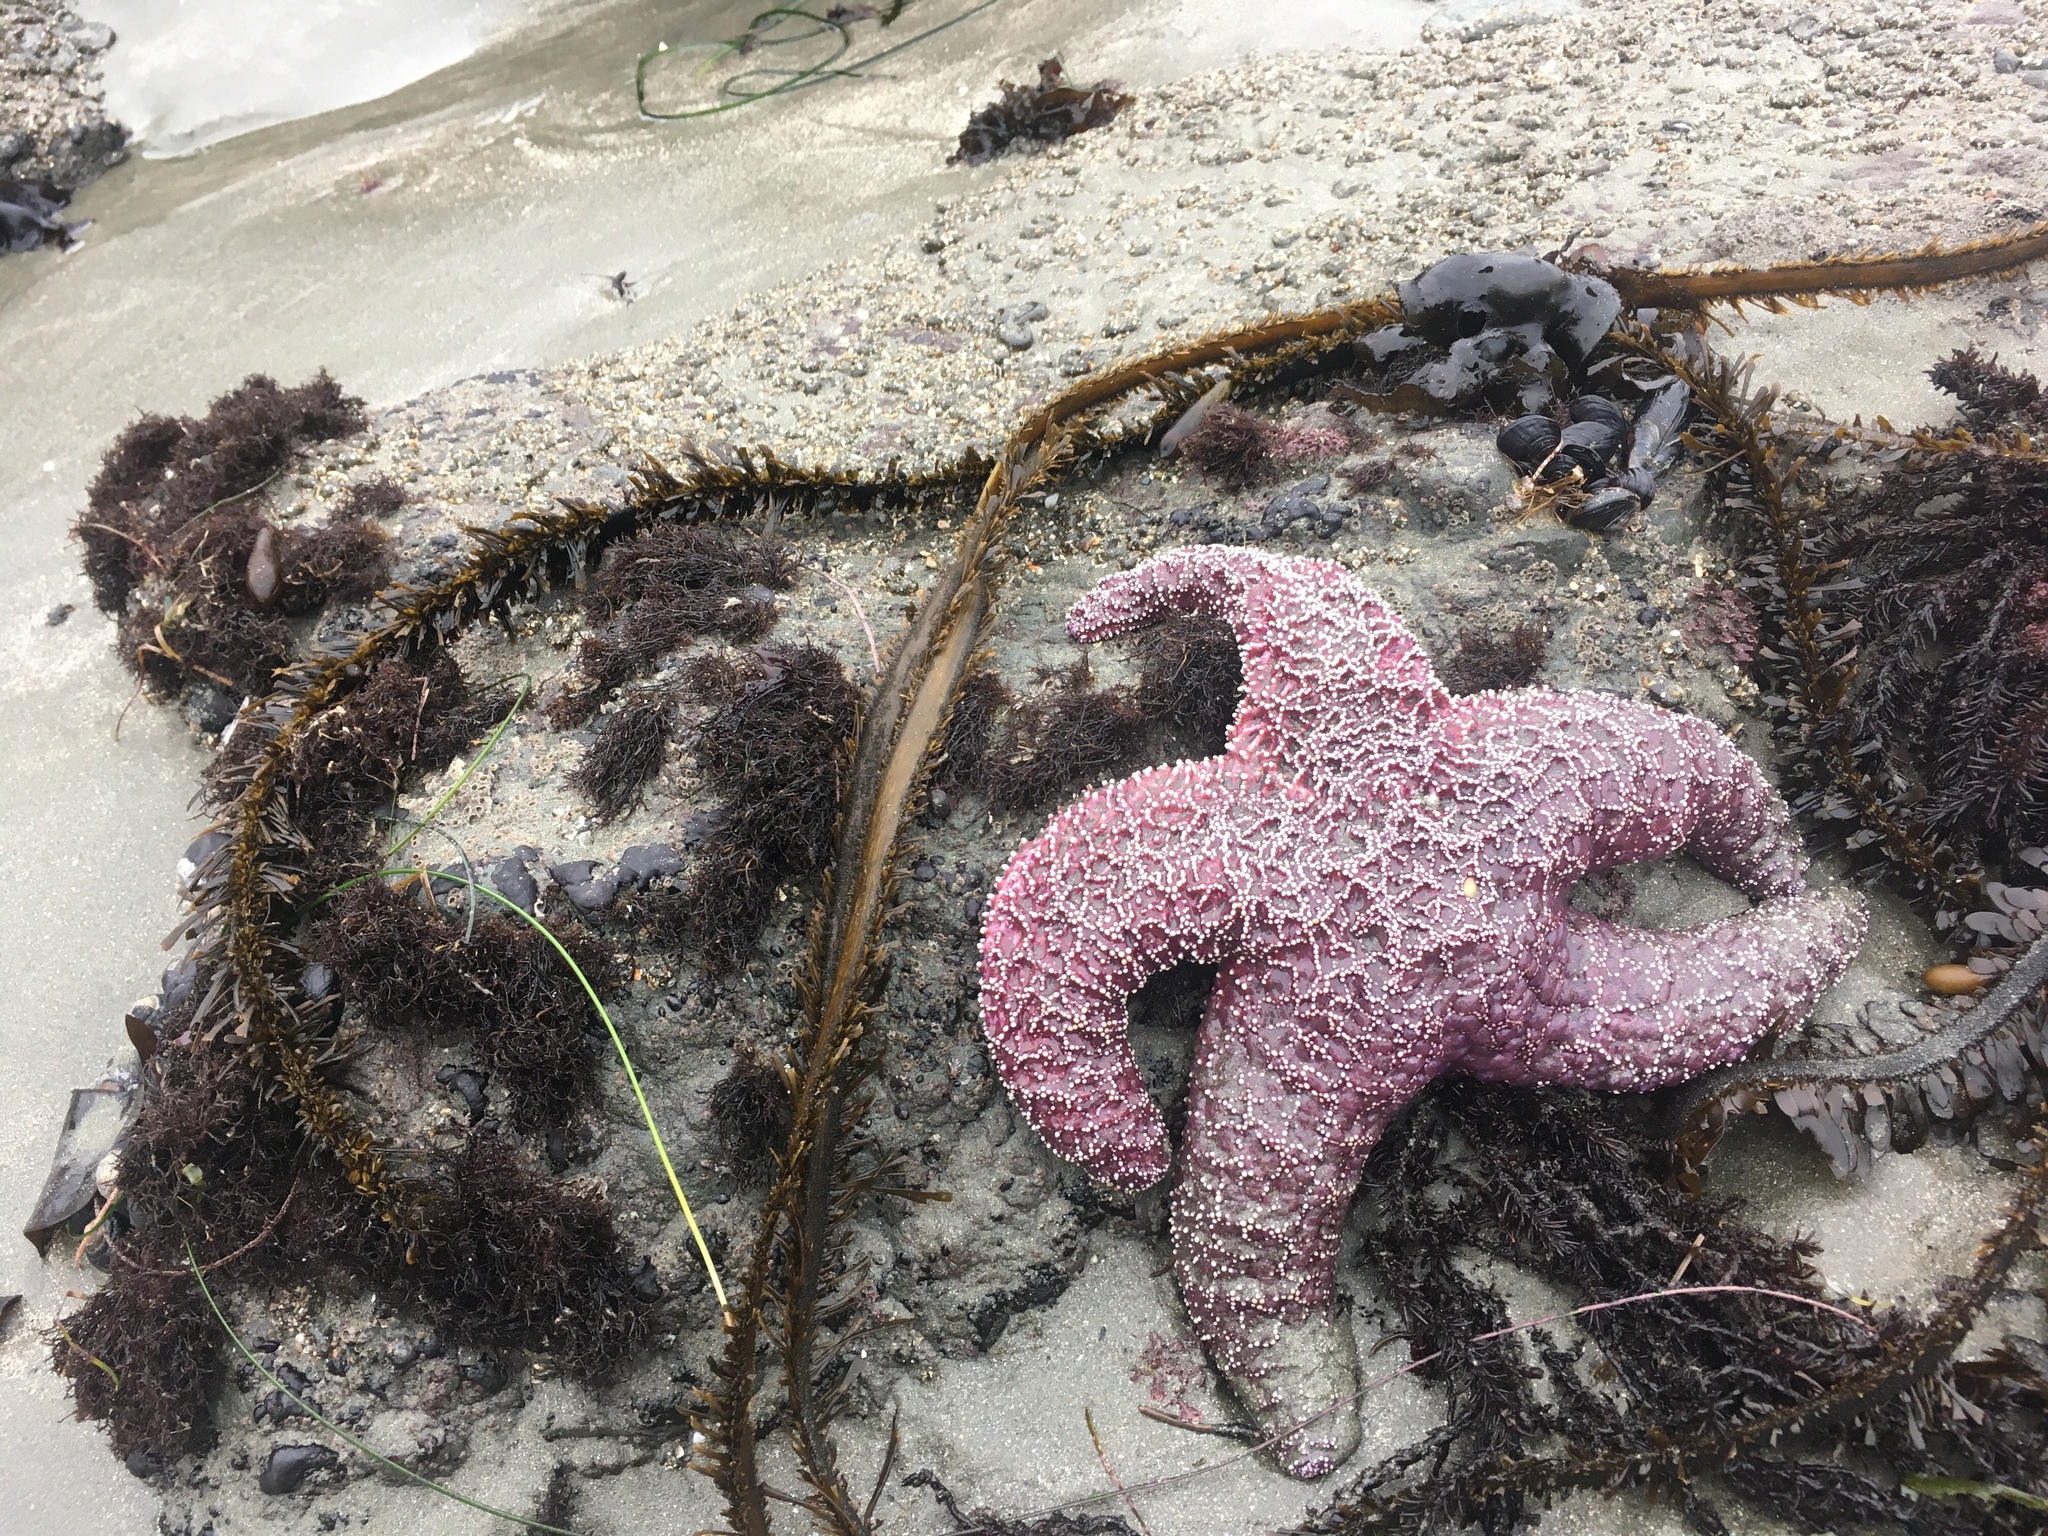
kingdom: Animalia
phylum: Echinodermata
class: Asteroidea
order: Forcipulatida
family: Asteriidae
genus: Pisaster
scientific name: Pisaster ochraceus
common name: Ochre stars
